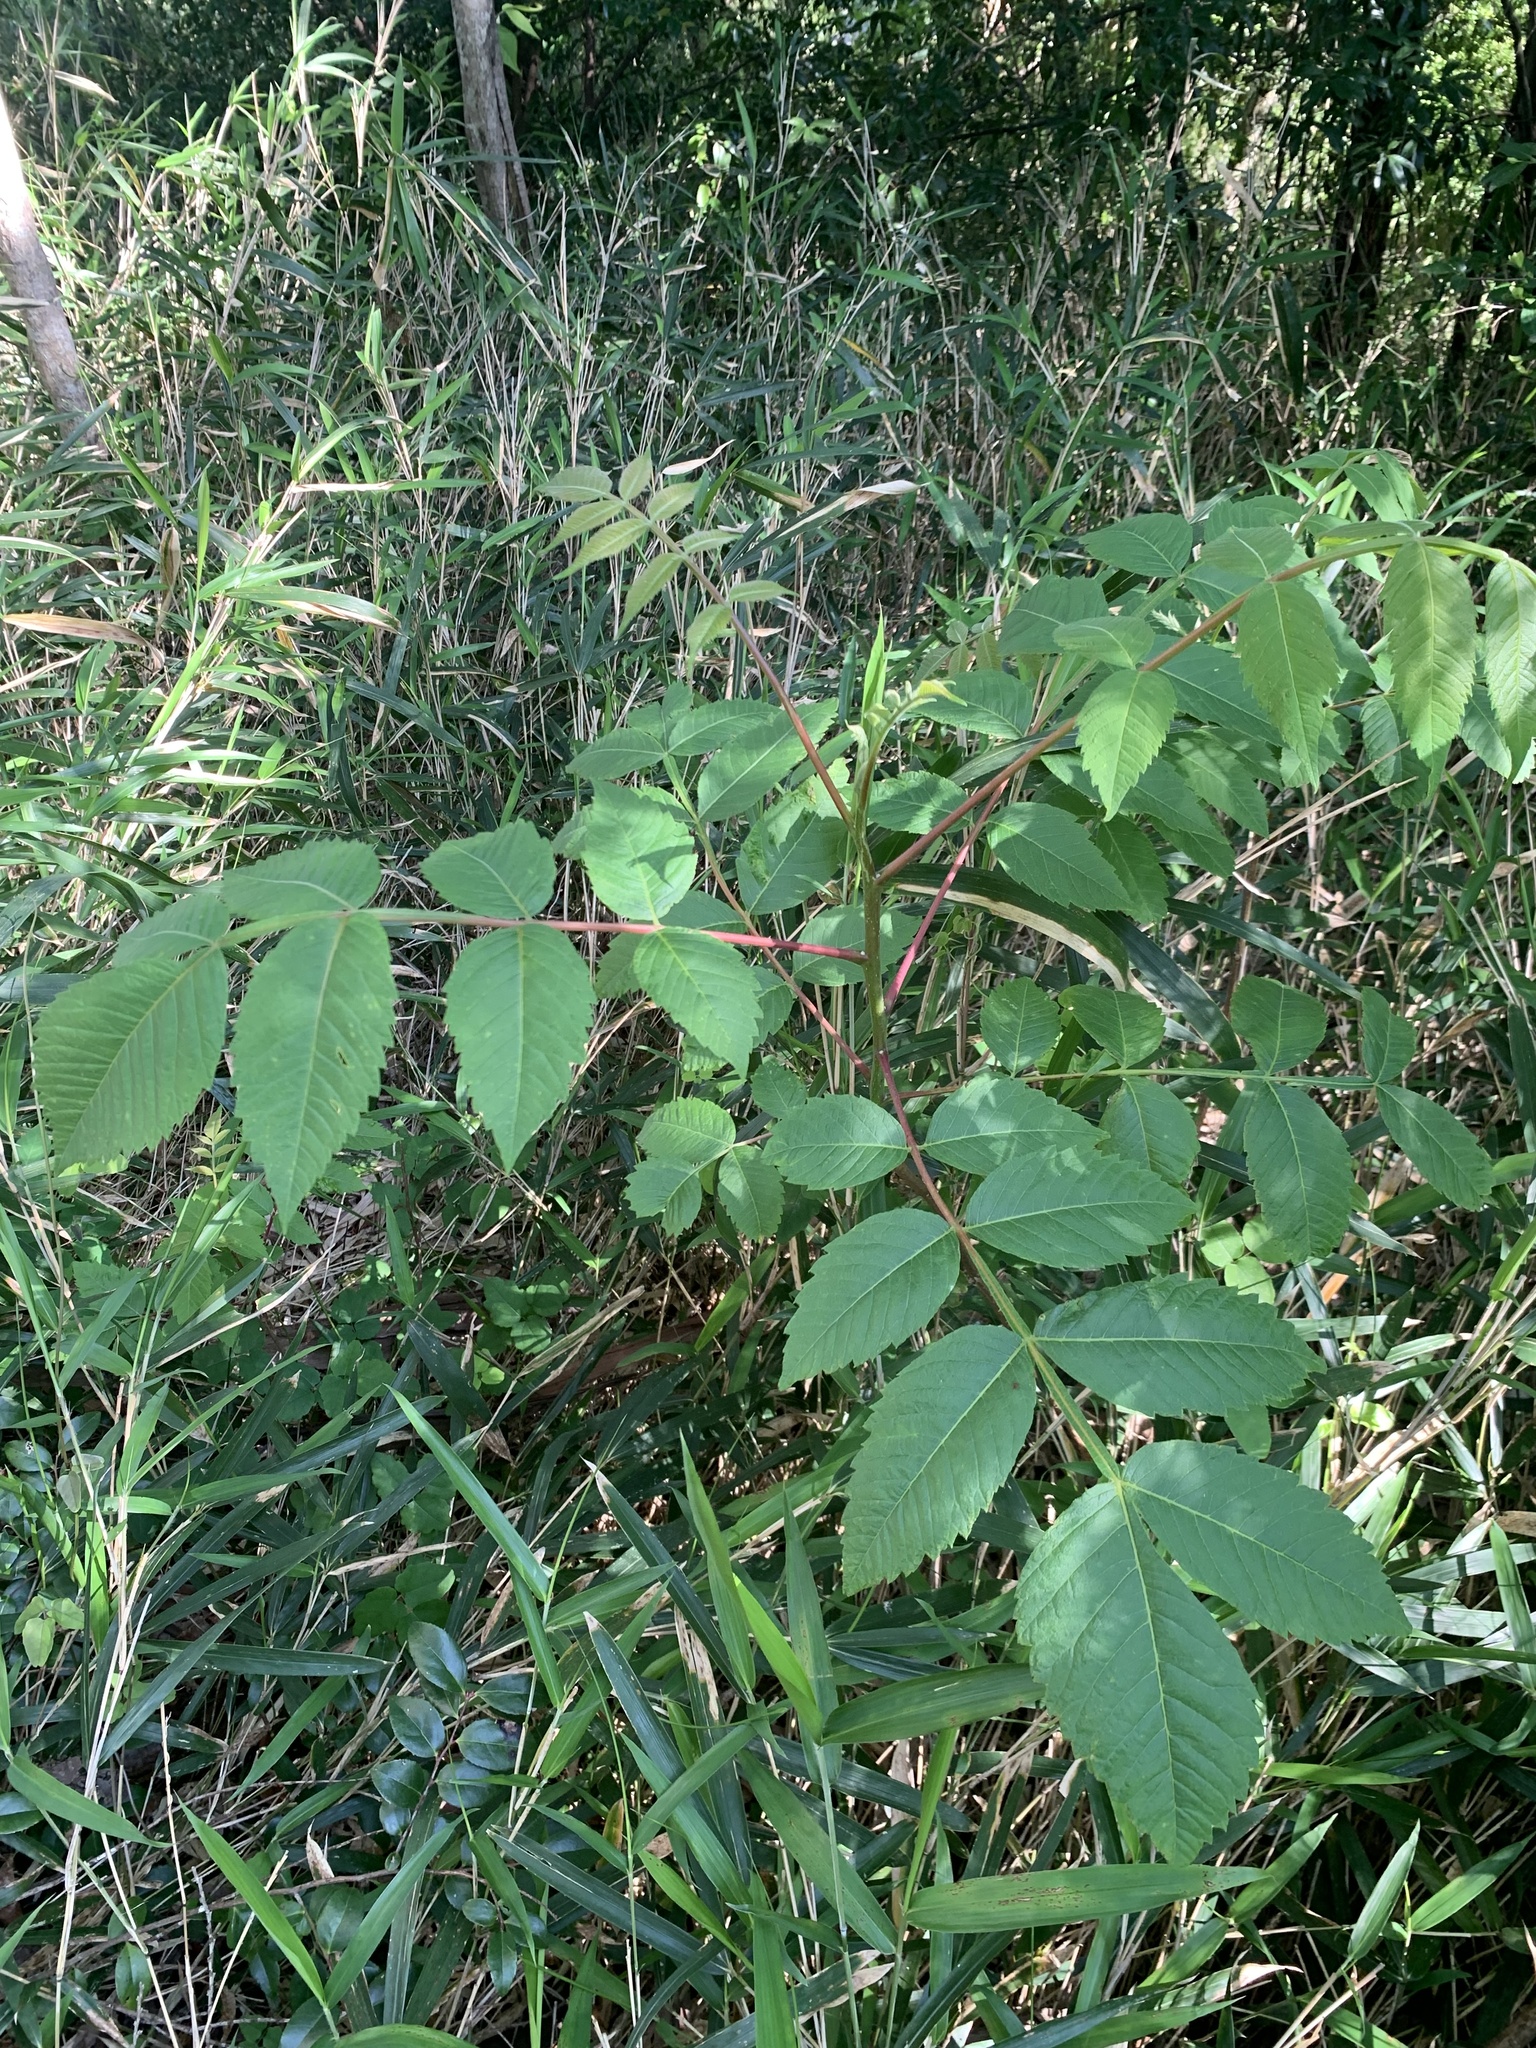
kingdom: Plantae
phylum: Tracheophyta
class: Magnoliopsida
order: Sapindales
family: Anacardiaceae
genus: Rhus
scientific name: Rhus chinensis
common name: Chinese gall
